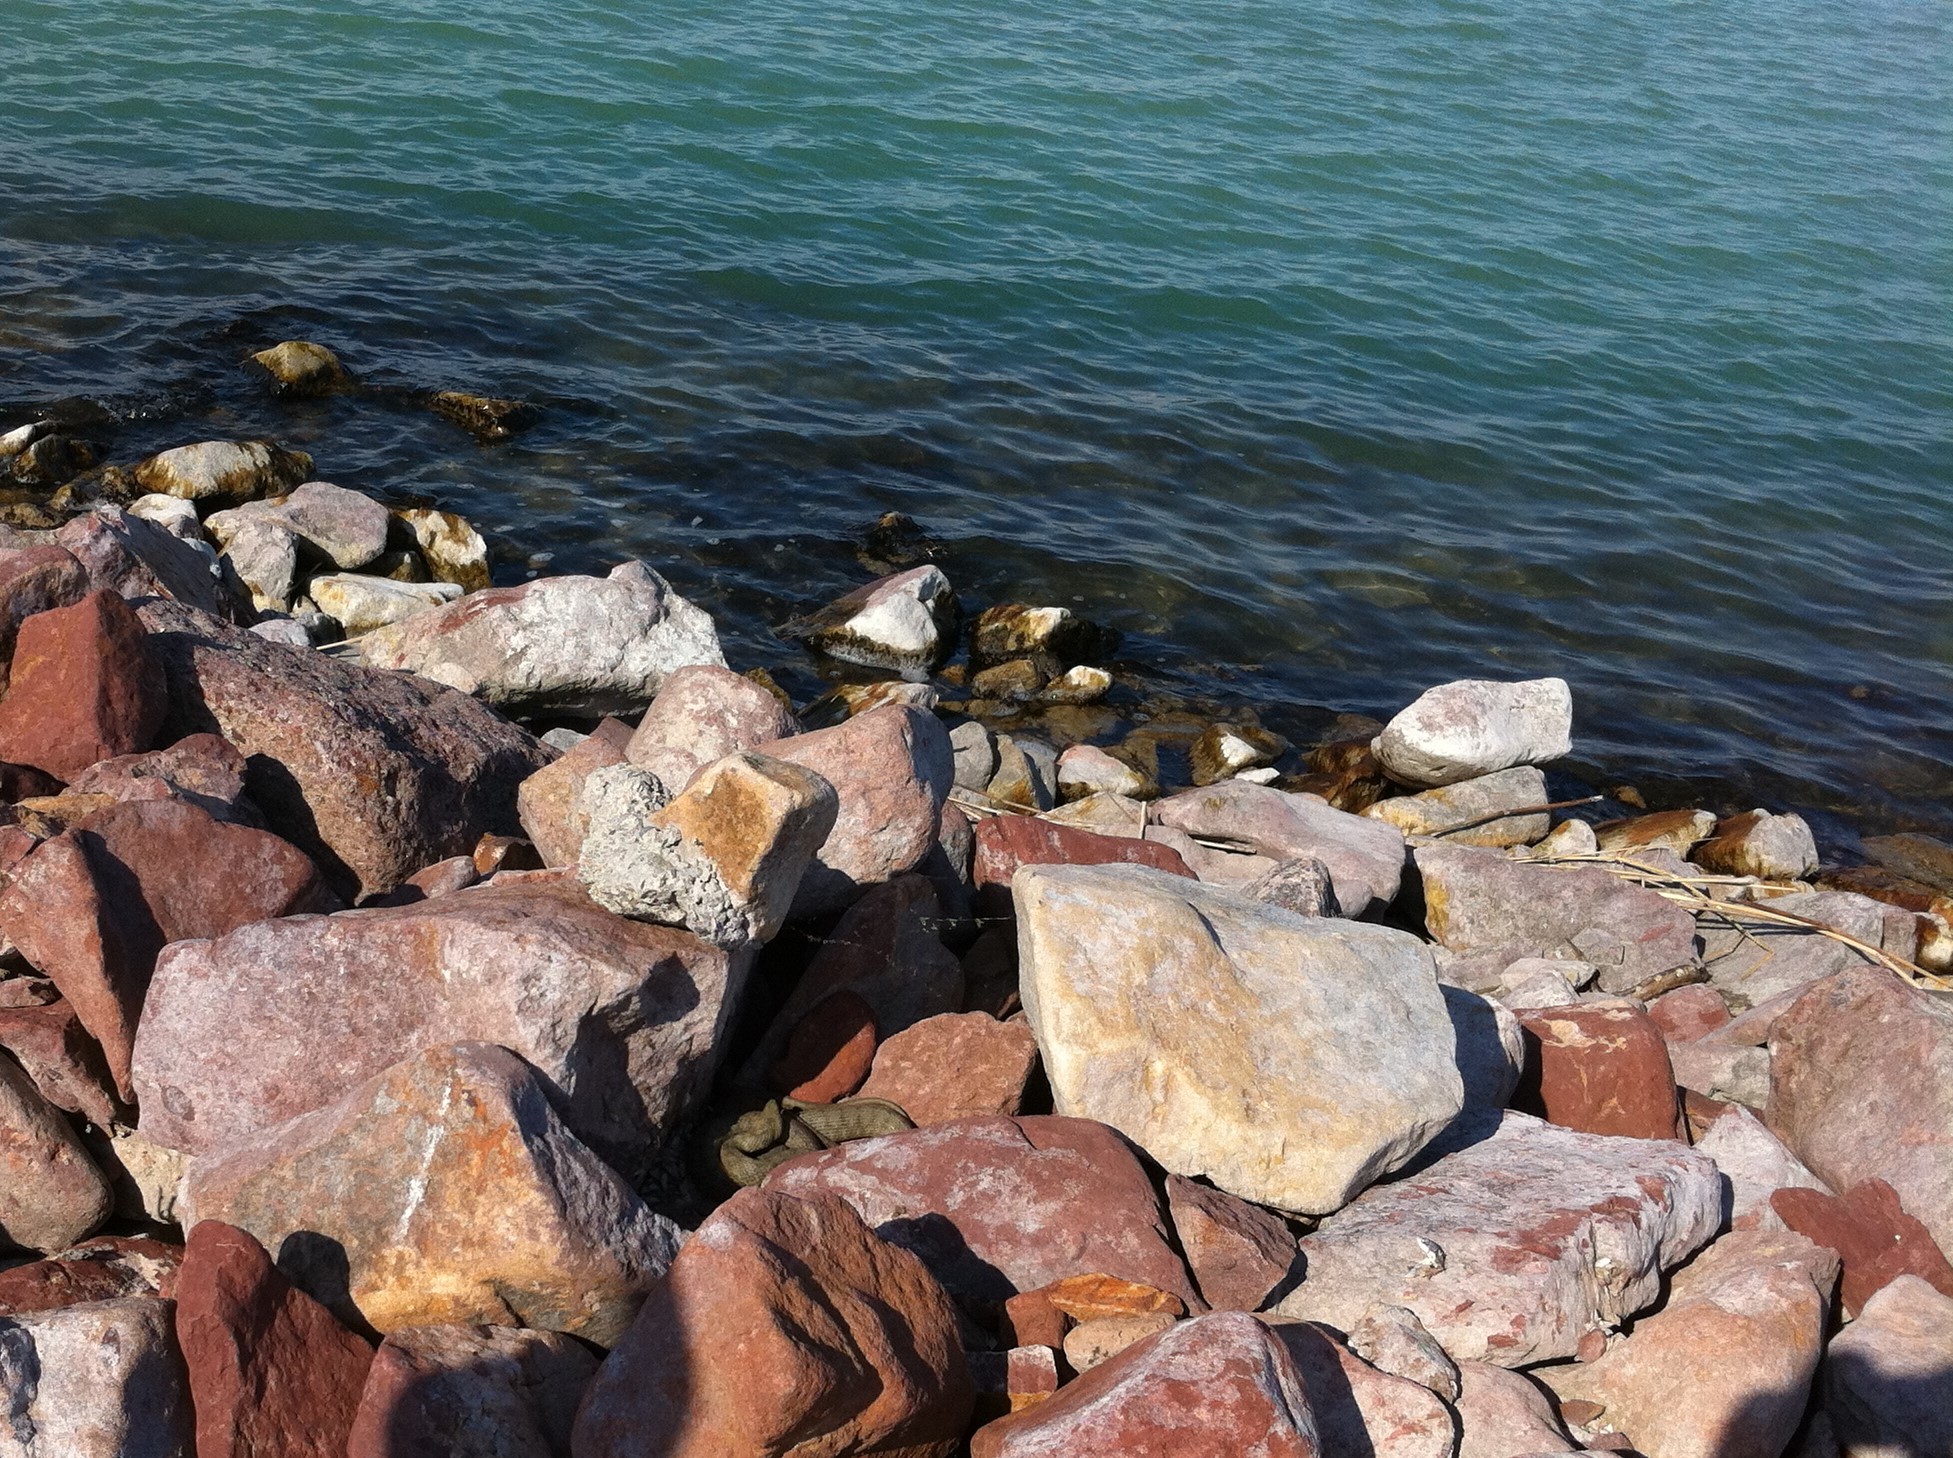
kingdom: Animalia
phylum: Chordata
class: Squamata
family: Colubridae
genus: Natrix
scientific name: Natrix tessellata
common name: Dice snake
